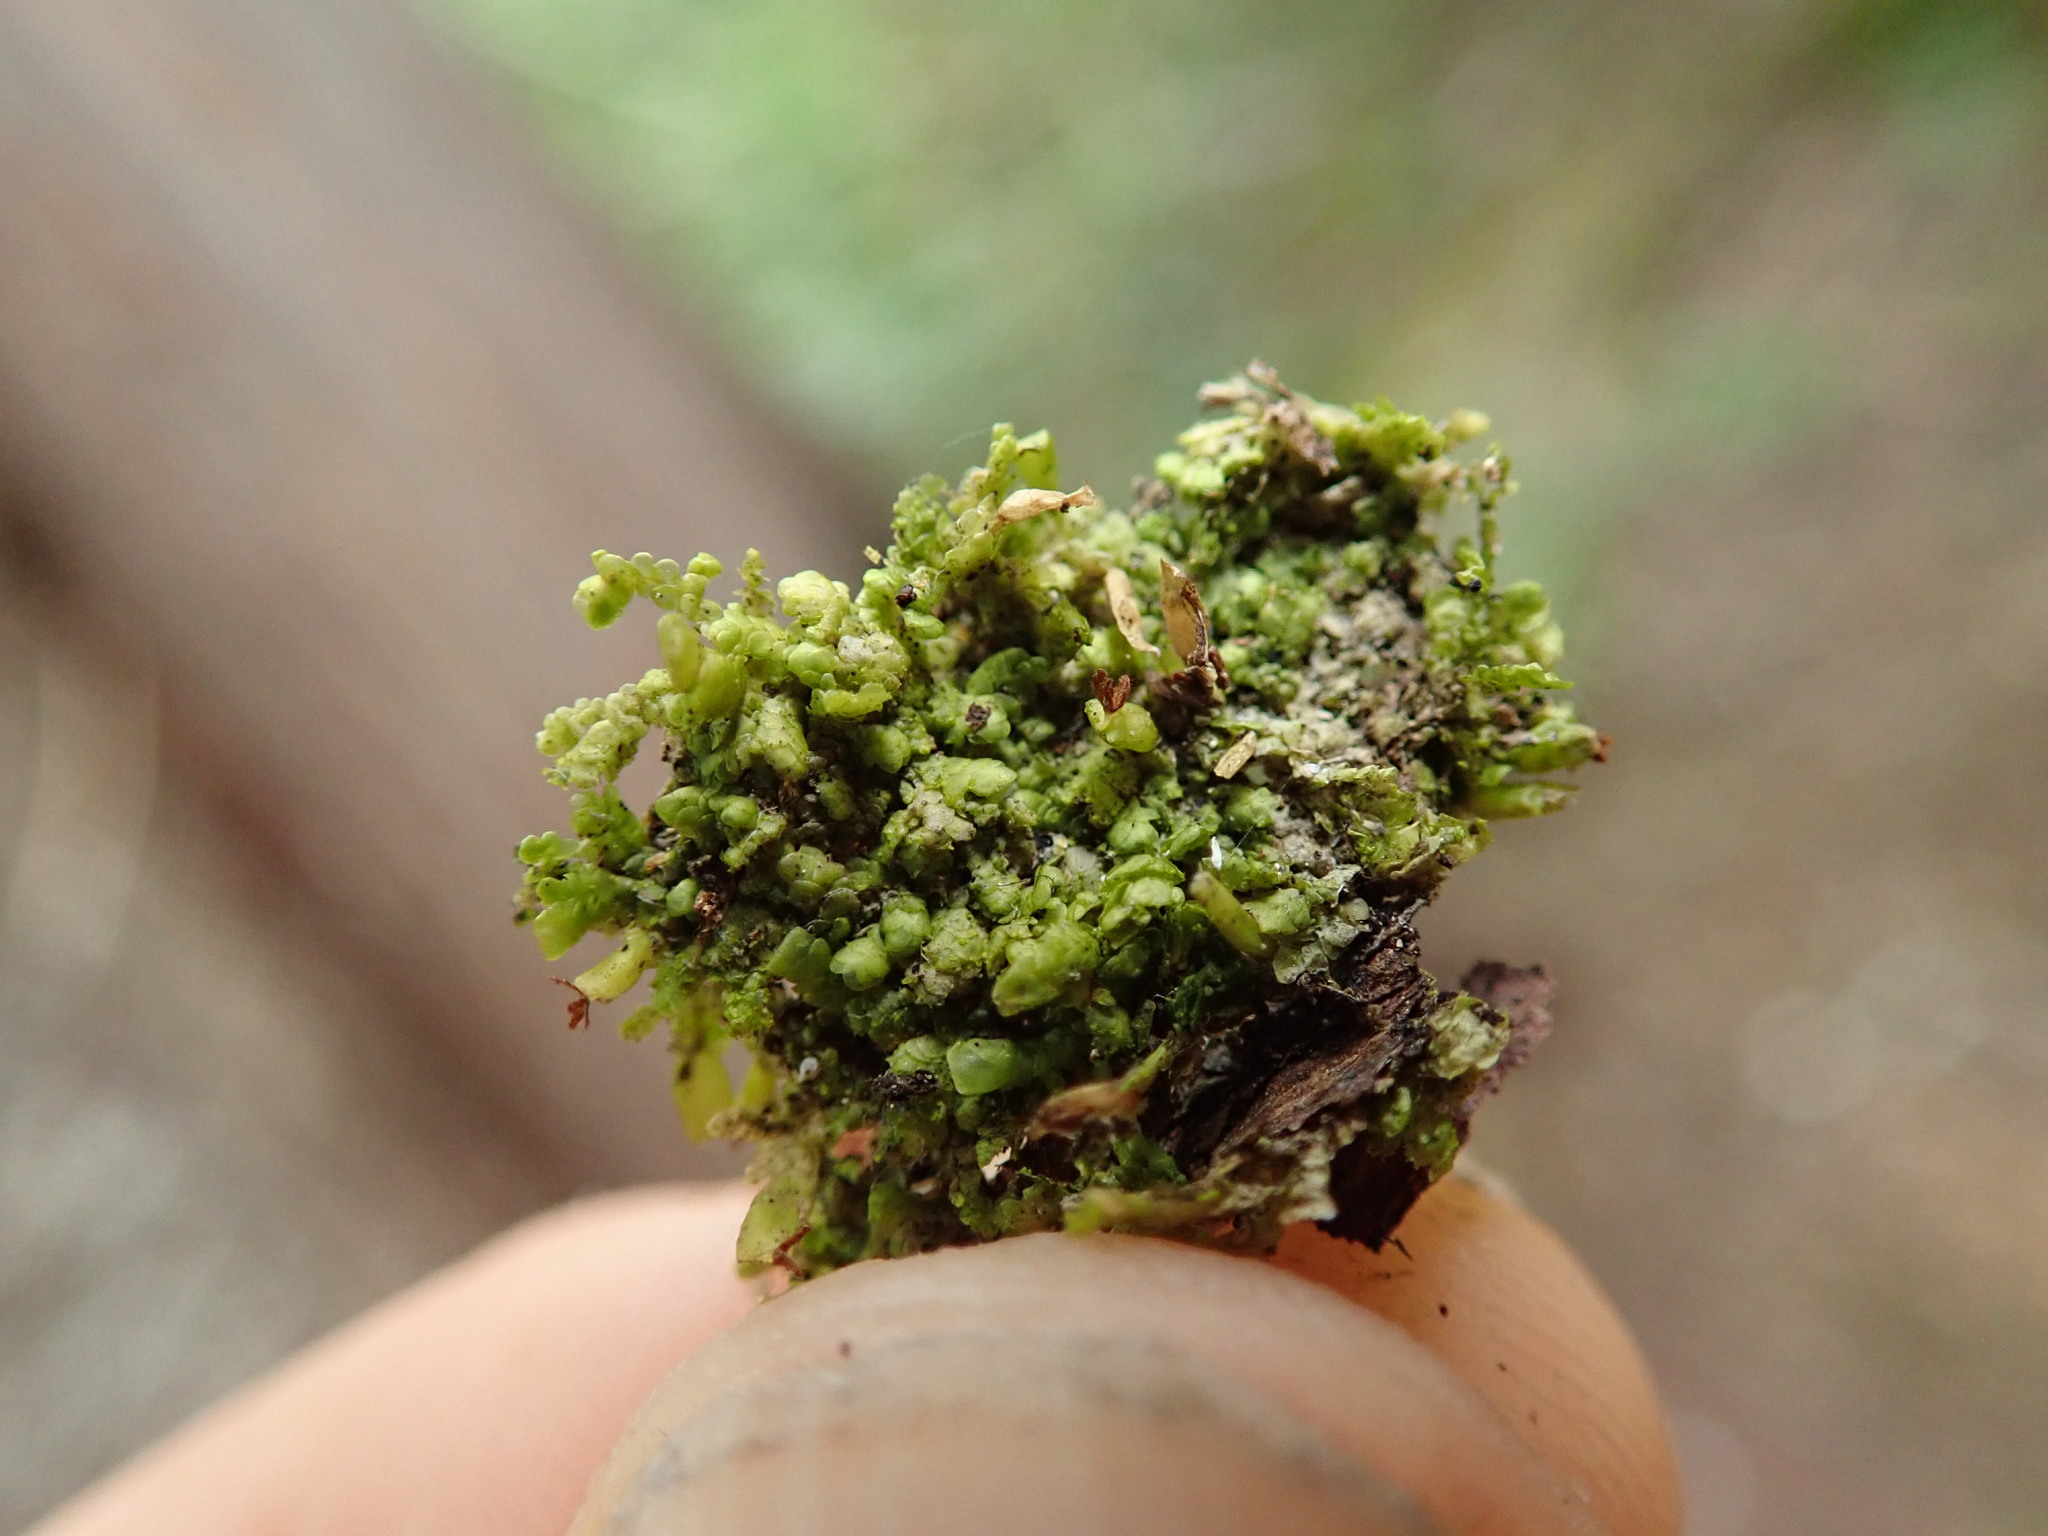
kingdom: Plantae
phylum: Marchantiophyta
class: Jungermanniopsida
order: Porellales
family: Radulaceae
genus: Radula
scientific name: Radula complanata
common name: Flat-leaved scalewort
